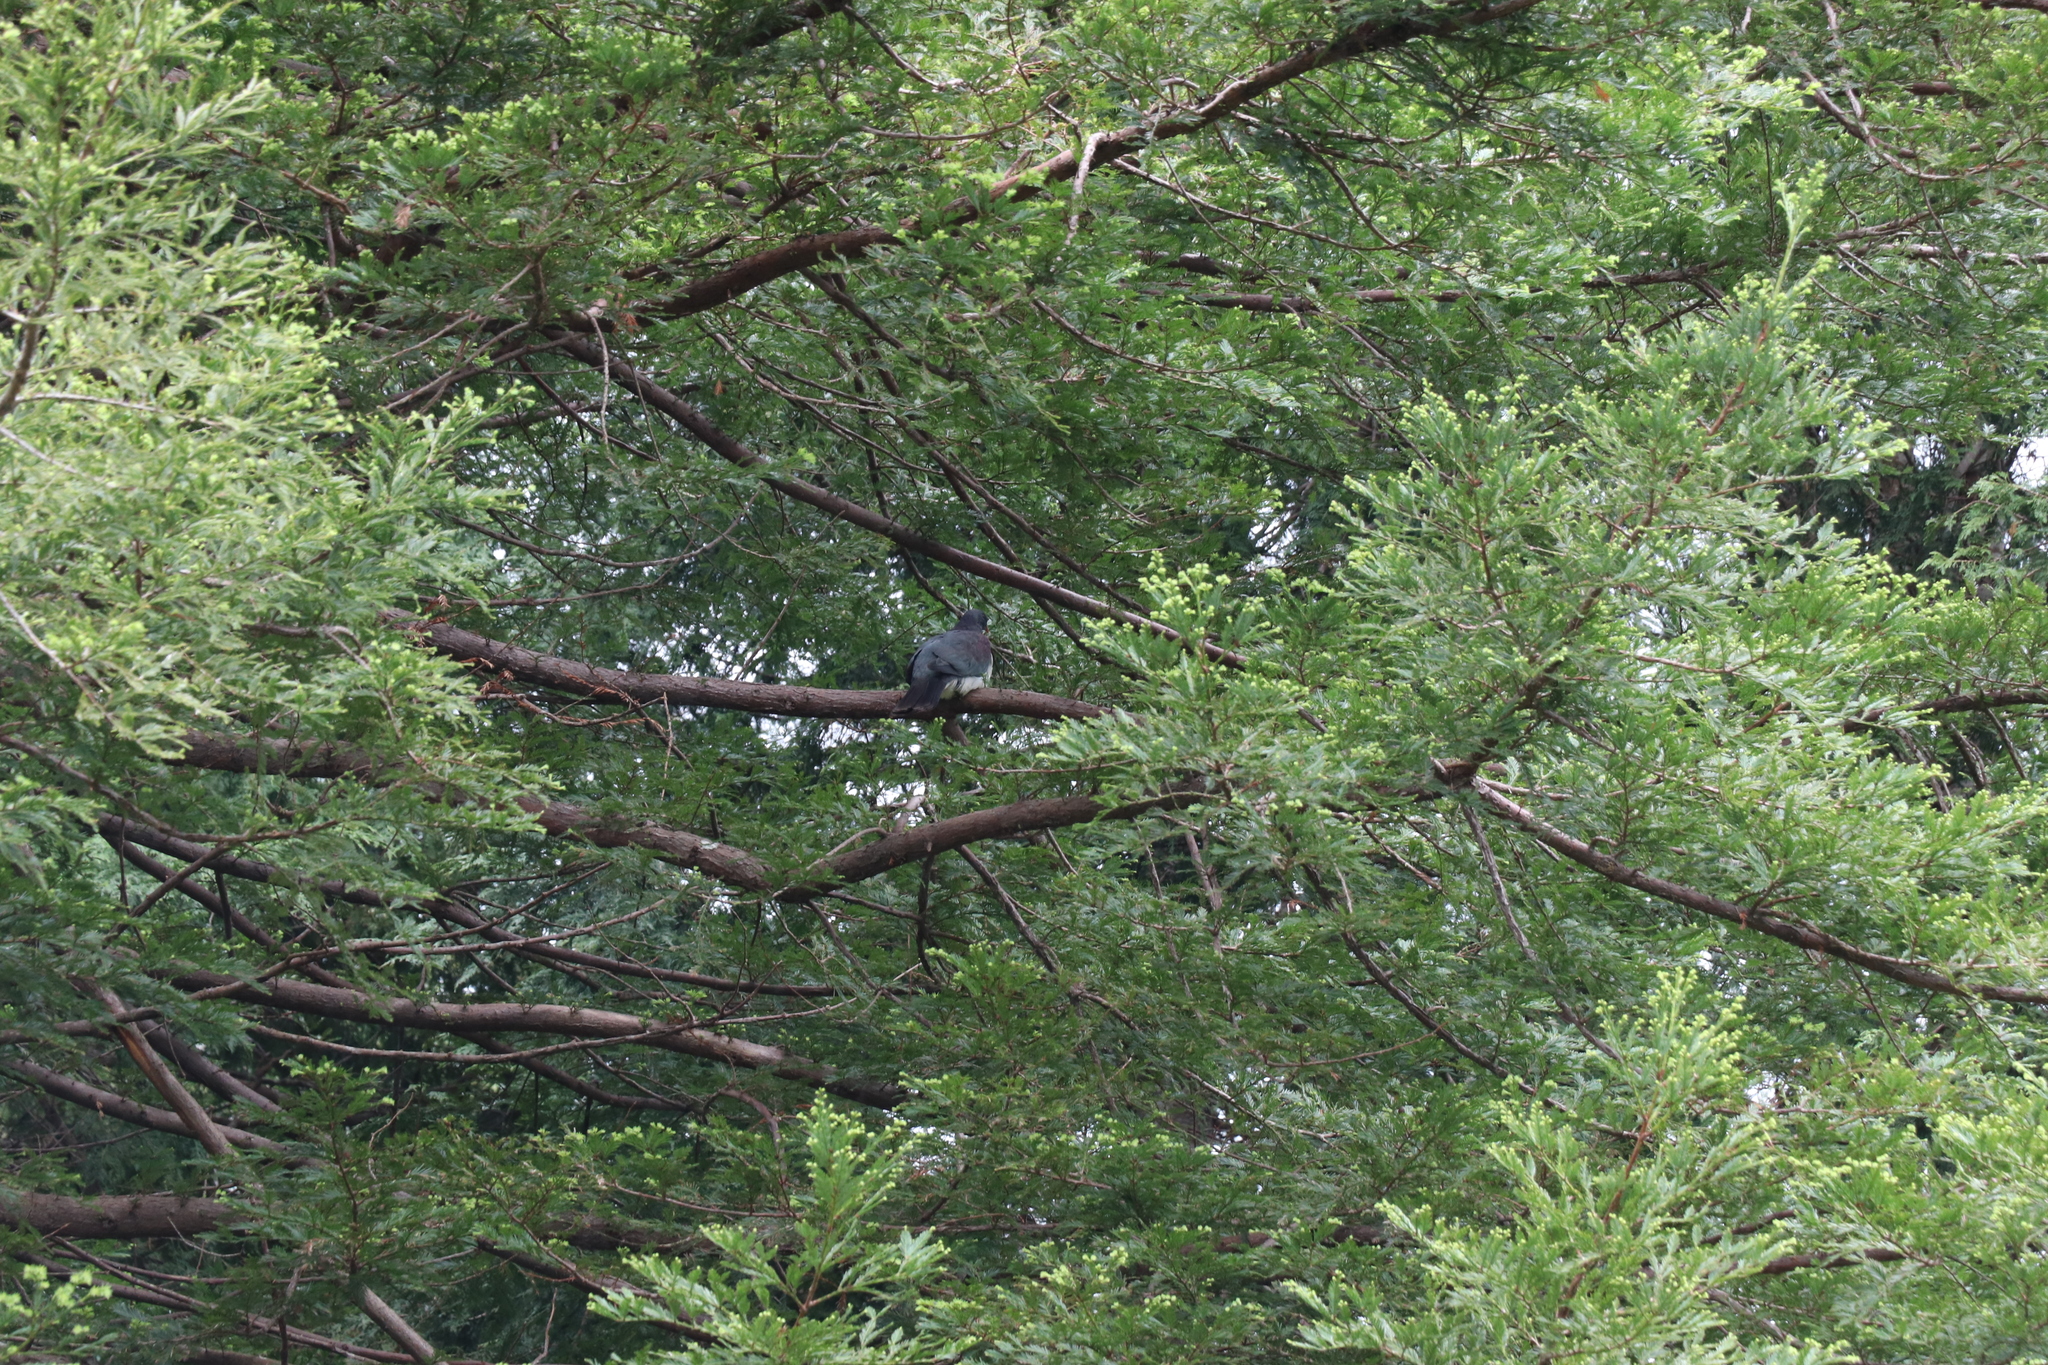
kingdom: Animalia
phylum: Chordata
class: Aves
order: Columbiformes
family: Columbidae
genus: Hemiphaga
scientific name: Hemiphaga novaeseelandiae
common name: New zealand pigeon
